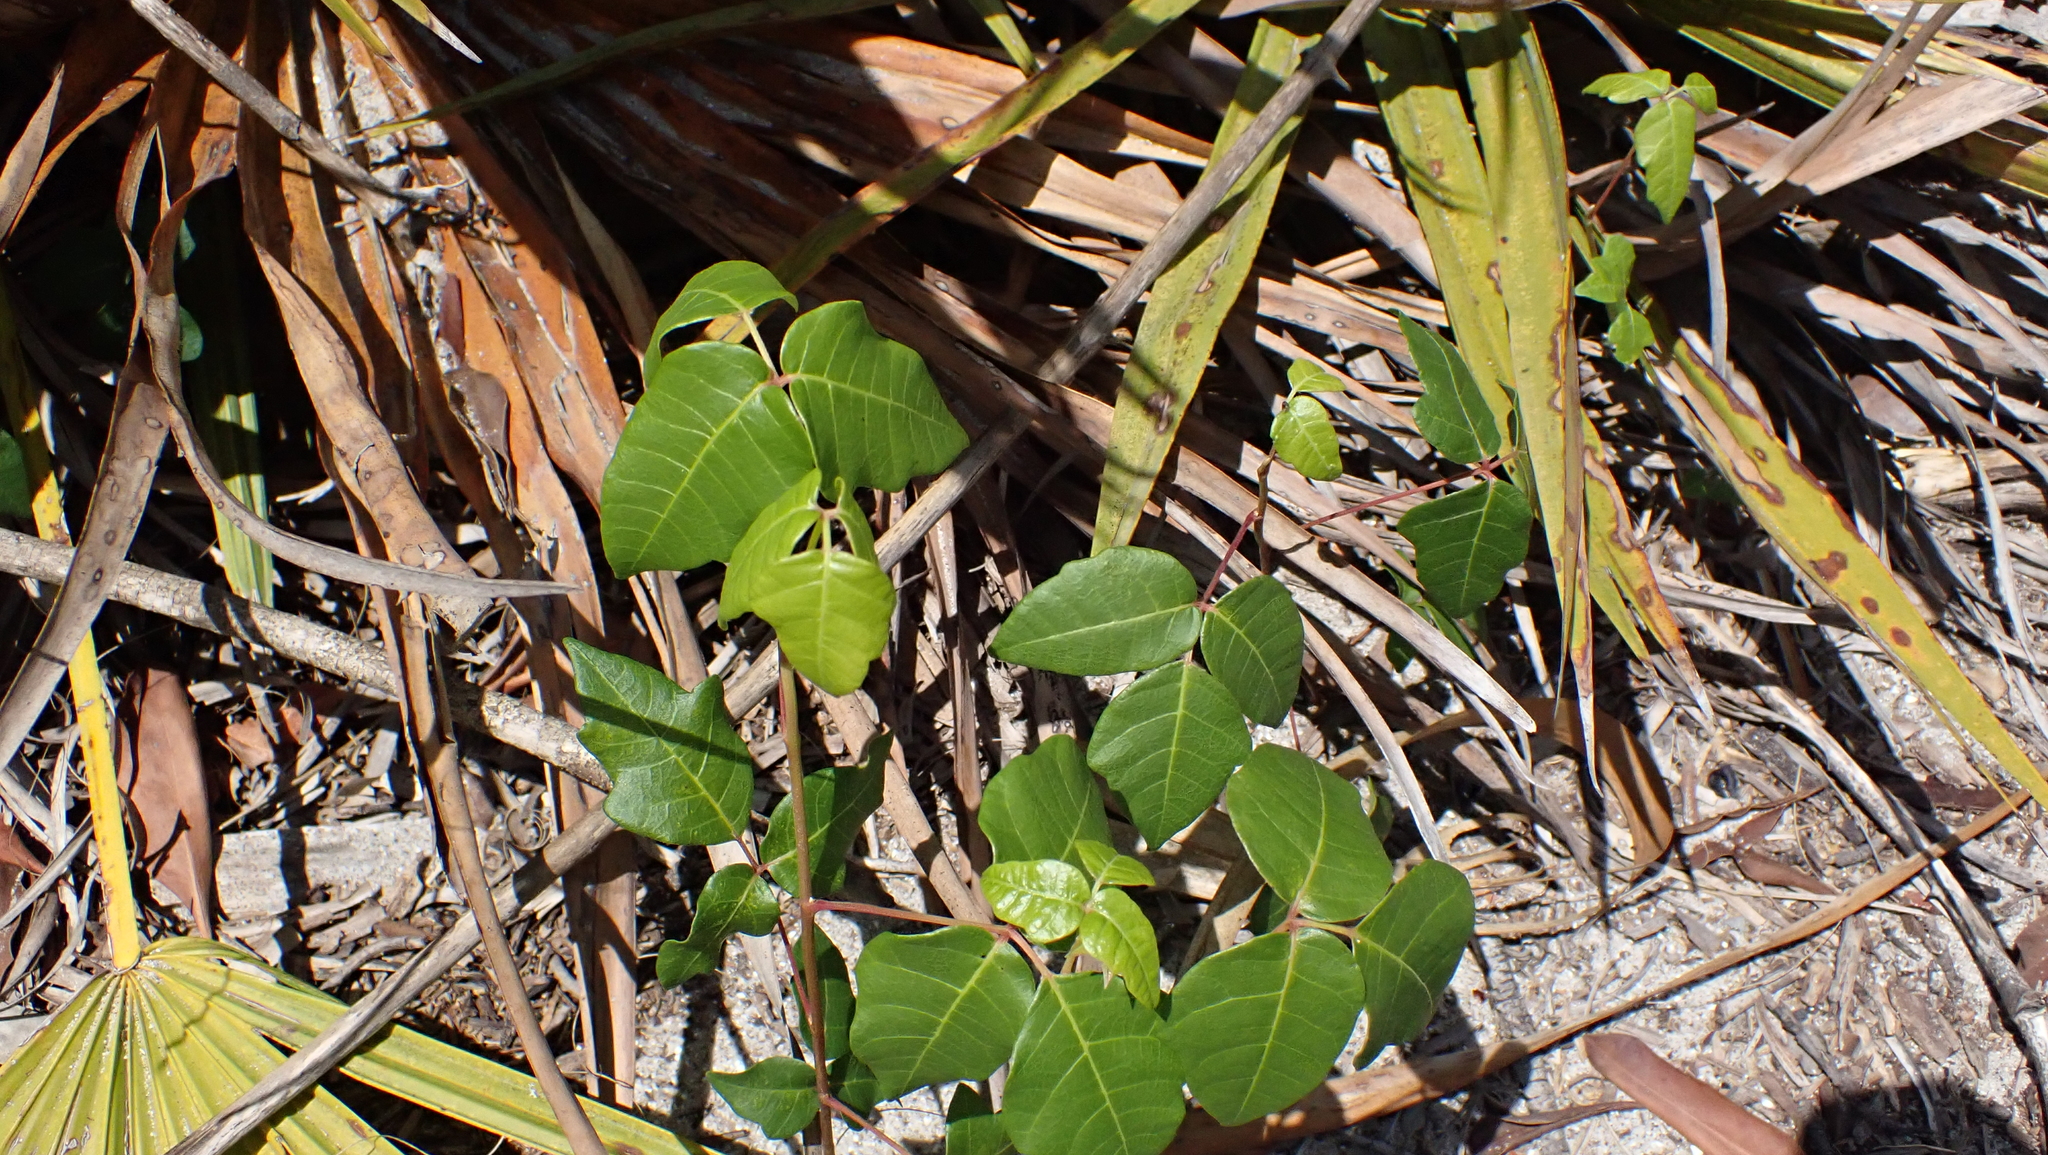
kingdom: Plantae
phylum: Tracheophyta
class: Magnoliopsida
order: Sapindales
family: Anacardiaceae
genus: Toxicodendron
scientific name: Toxicodendron radicans
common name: Poison ivy
